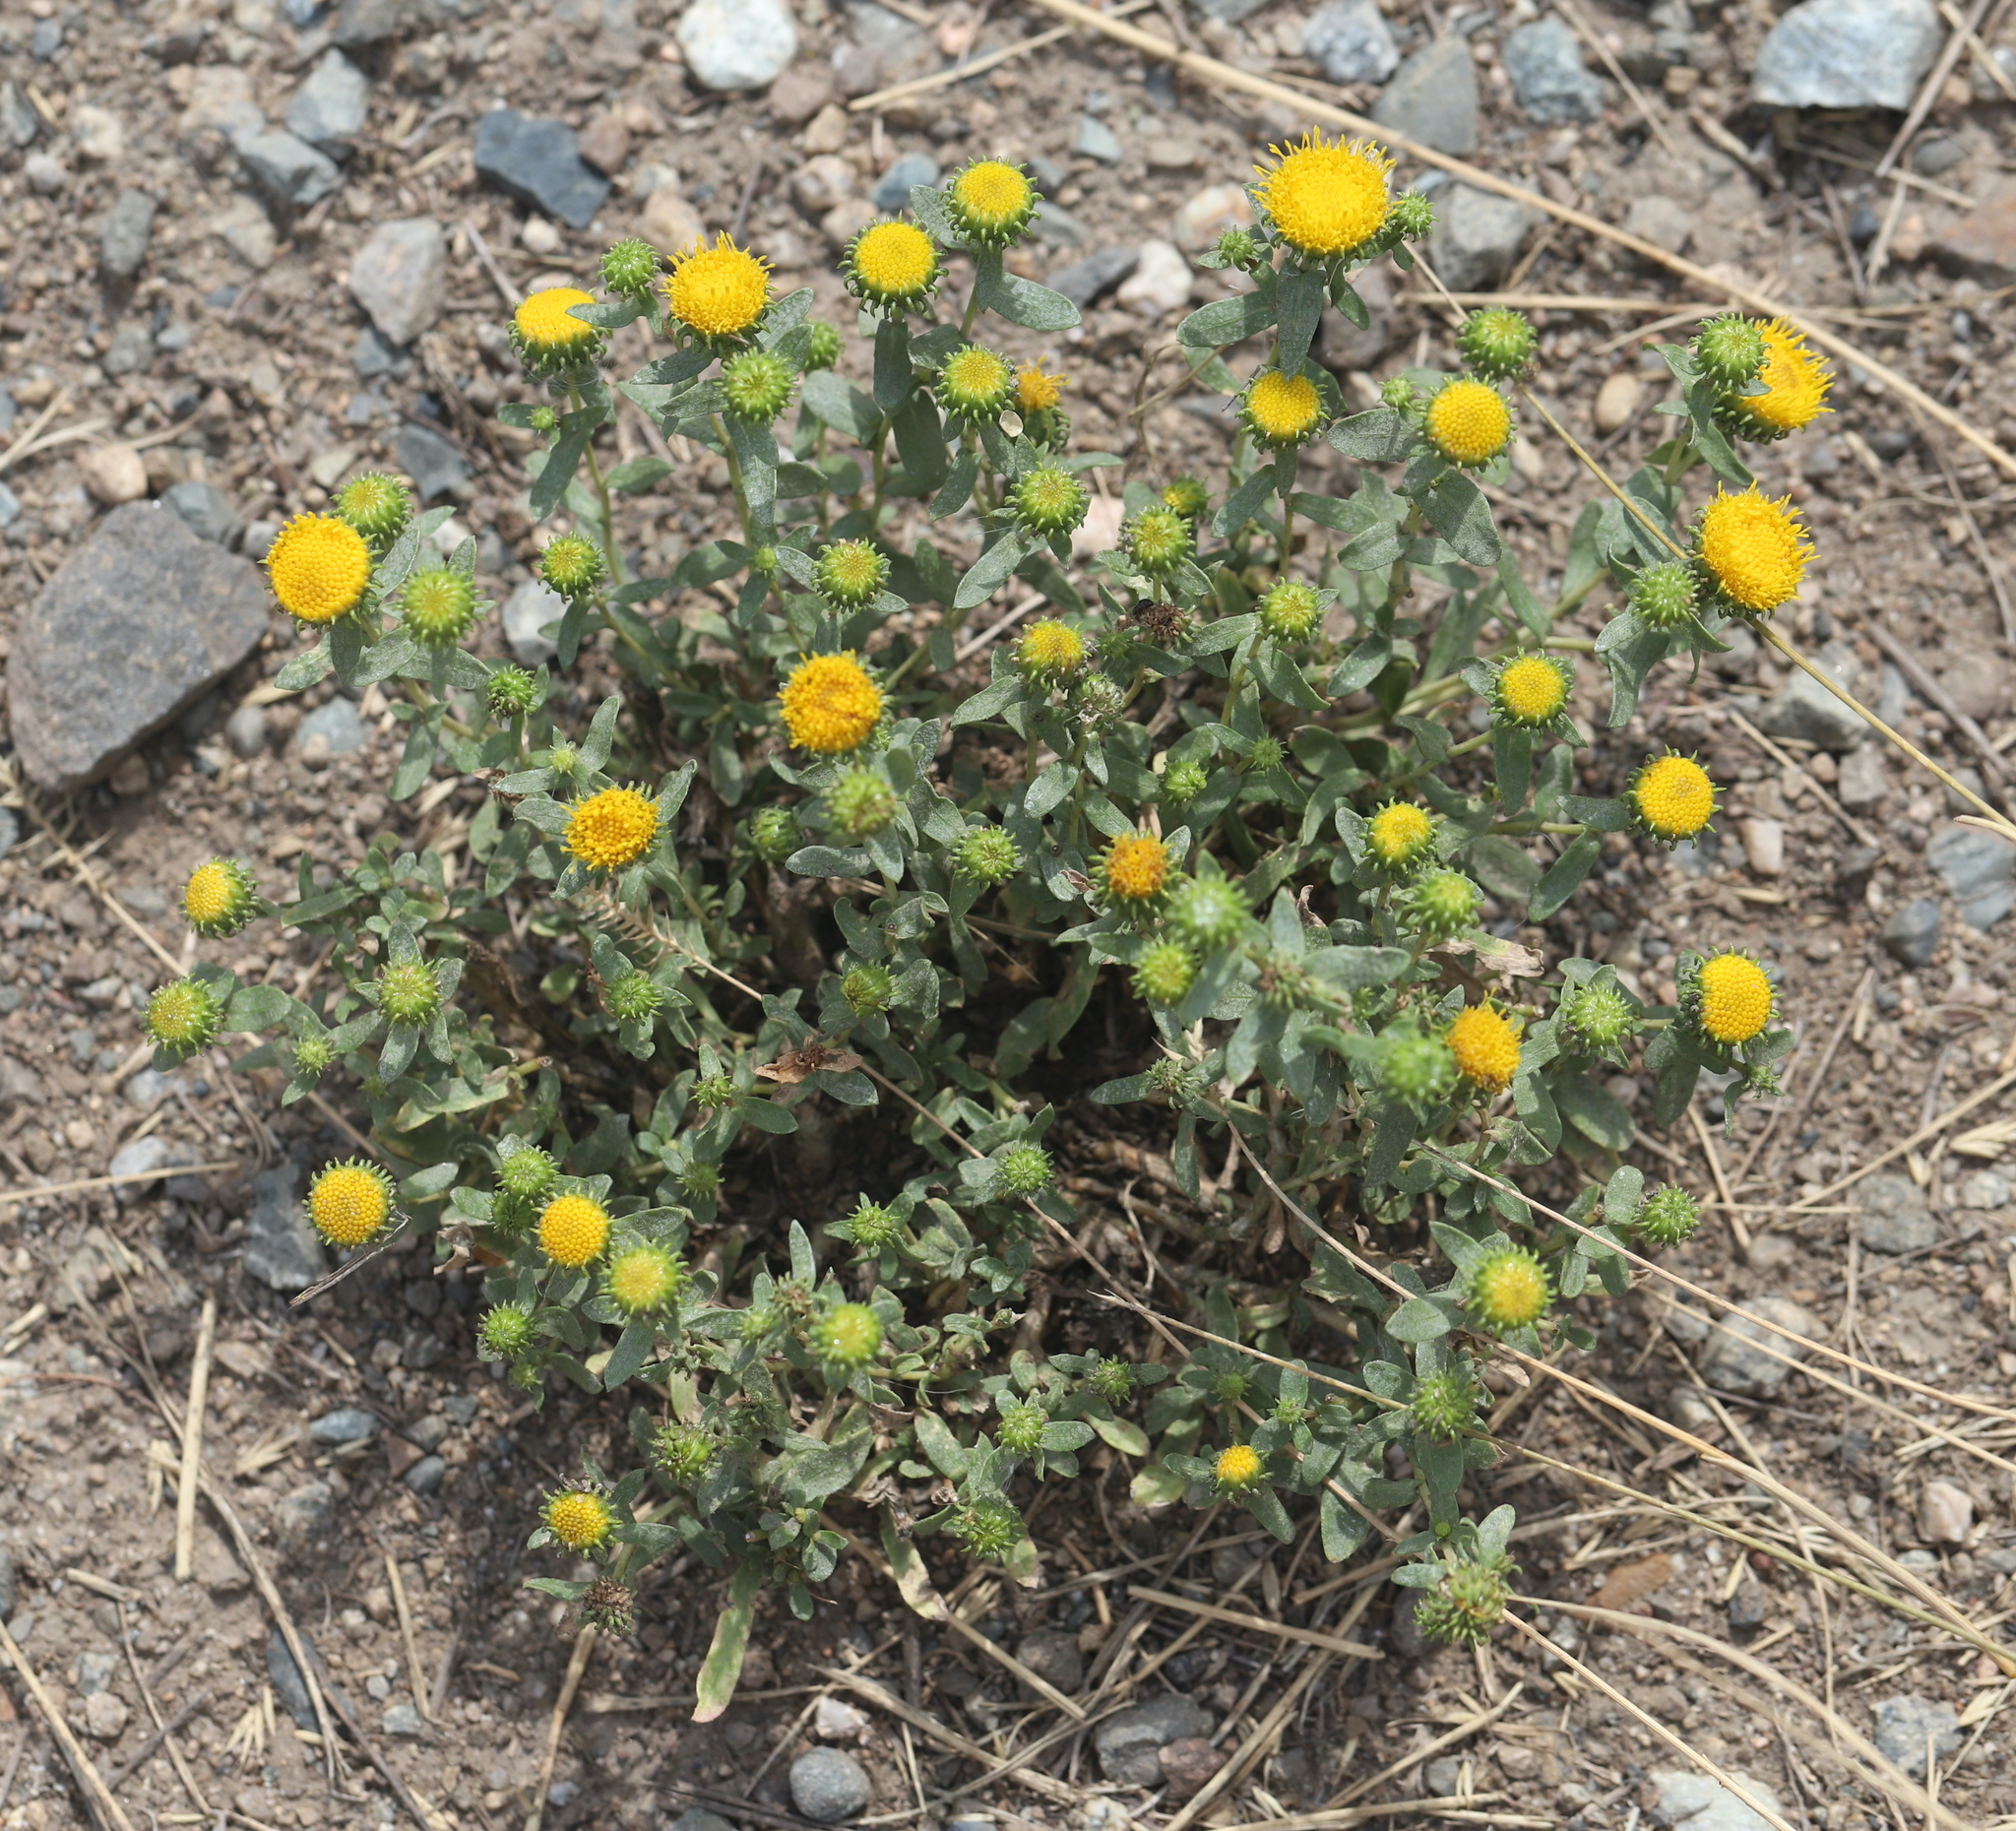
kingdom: Plantae
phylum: Tracheophyta
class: Magnoliopsida
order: Asterales
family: Asteraceae
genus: Grindelia
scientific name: Grindelia squarrosa
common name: Curly-cup gumweed
